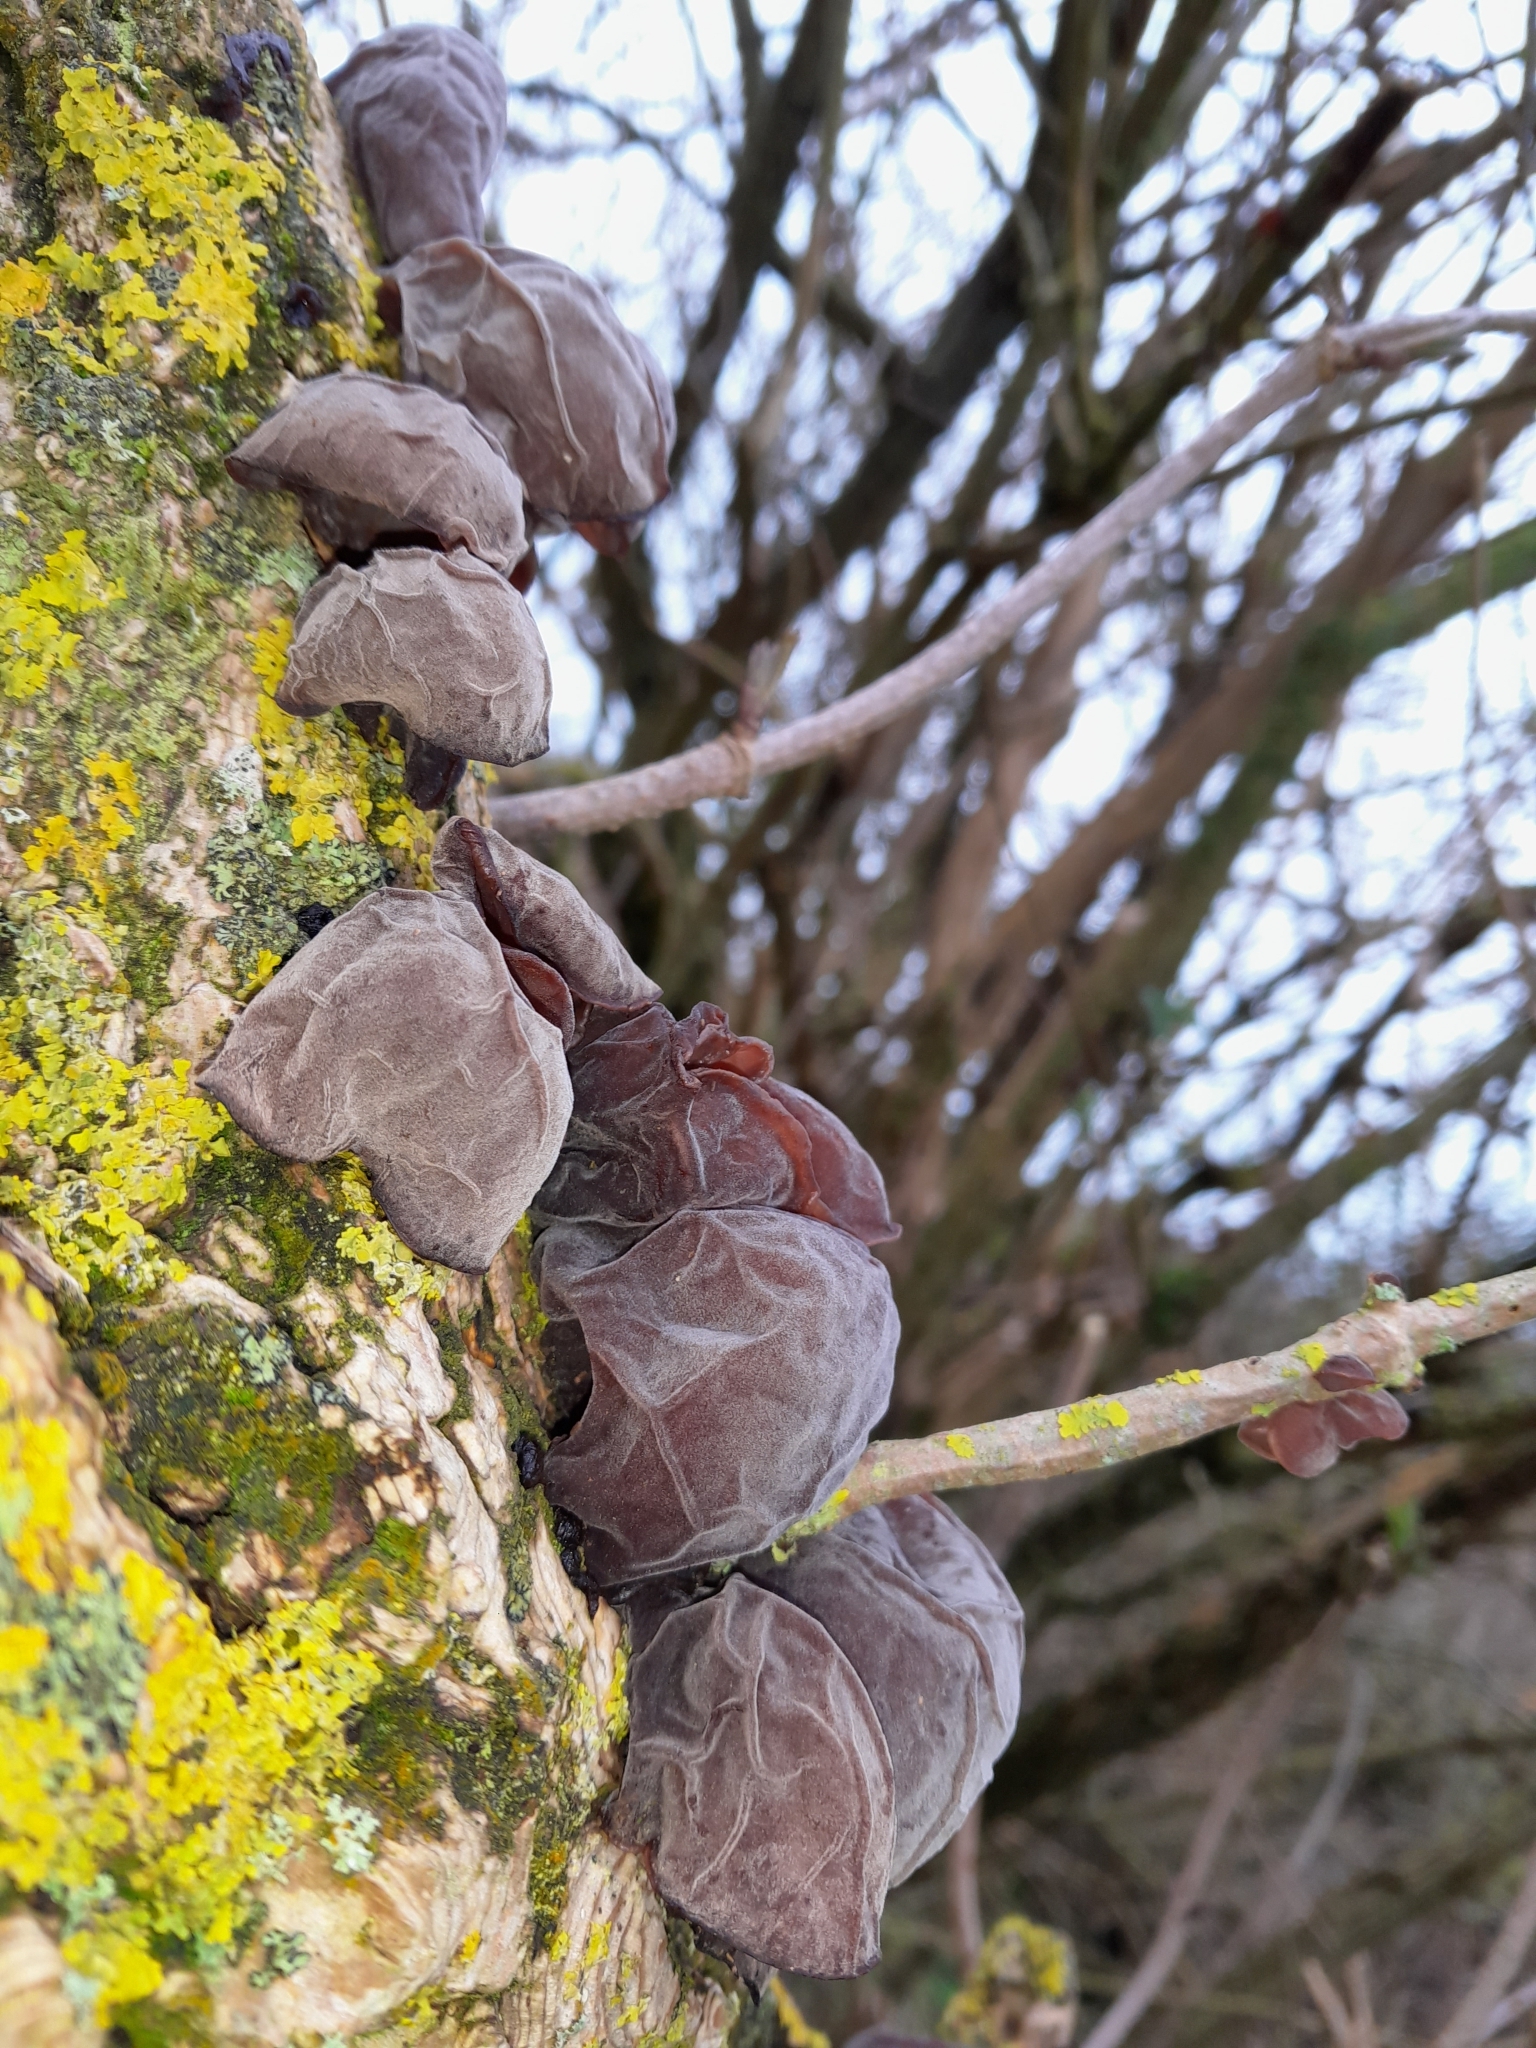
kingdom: Fungi
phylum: Basidiomycota
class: Agaricomycetes
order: Auriculariales
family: Auriculariaceae
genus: Auricularia
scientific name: Auricularia auricula-judae
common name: Jelly ear
